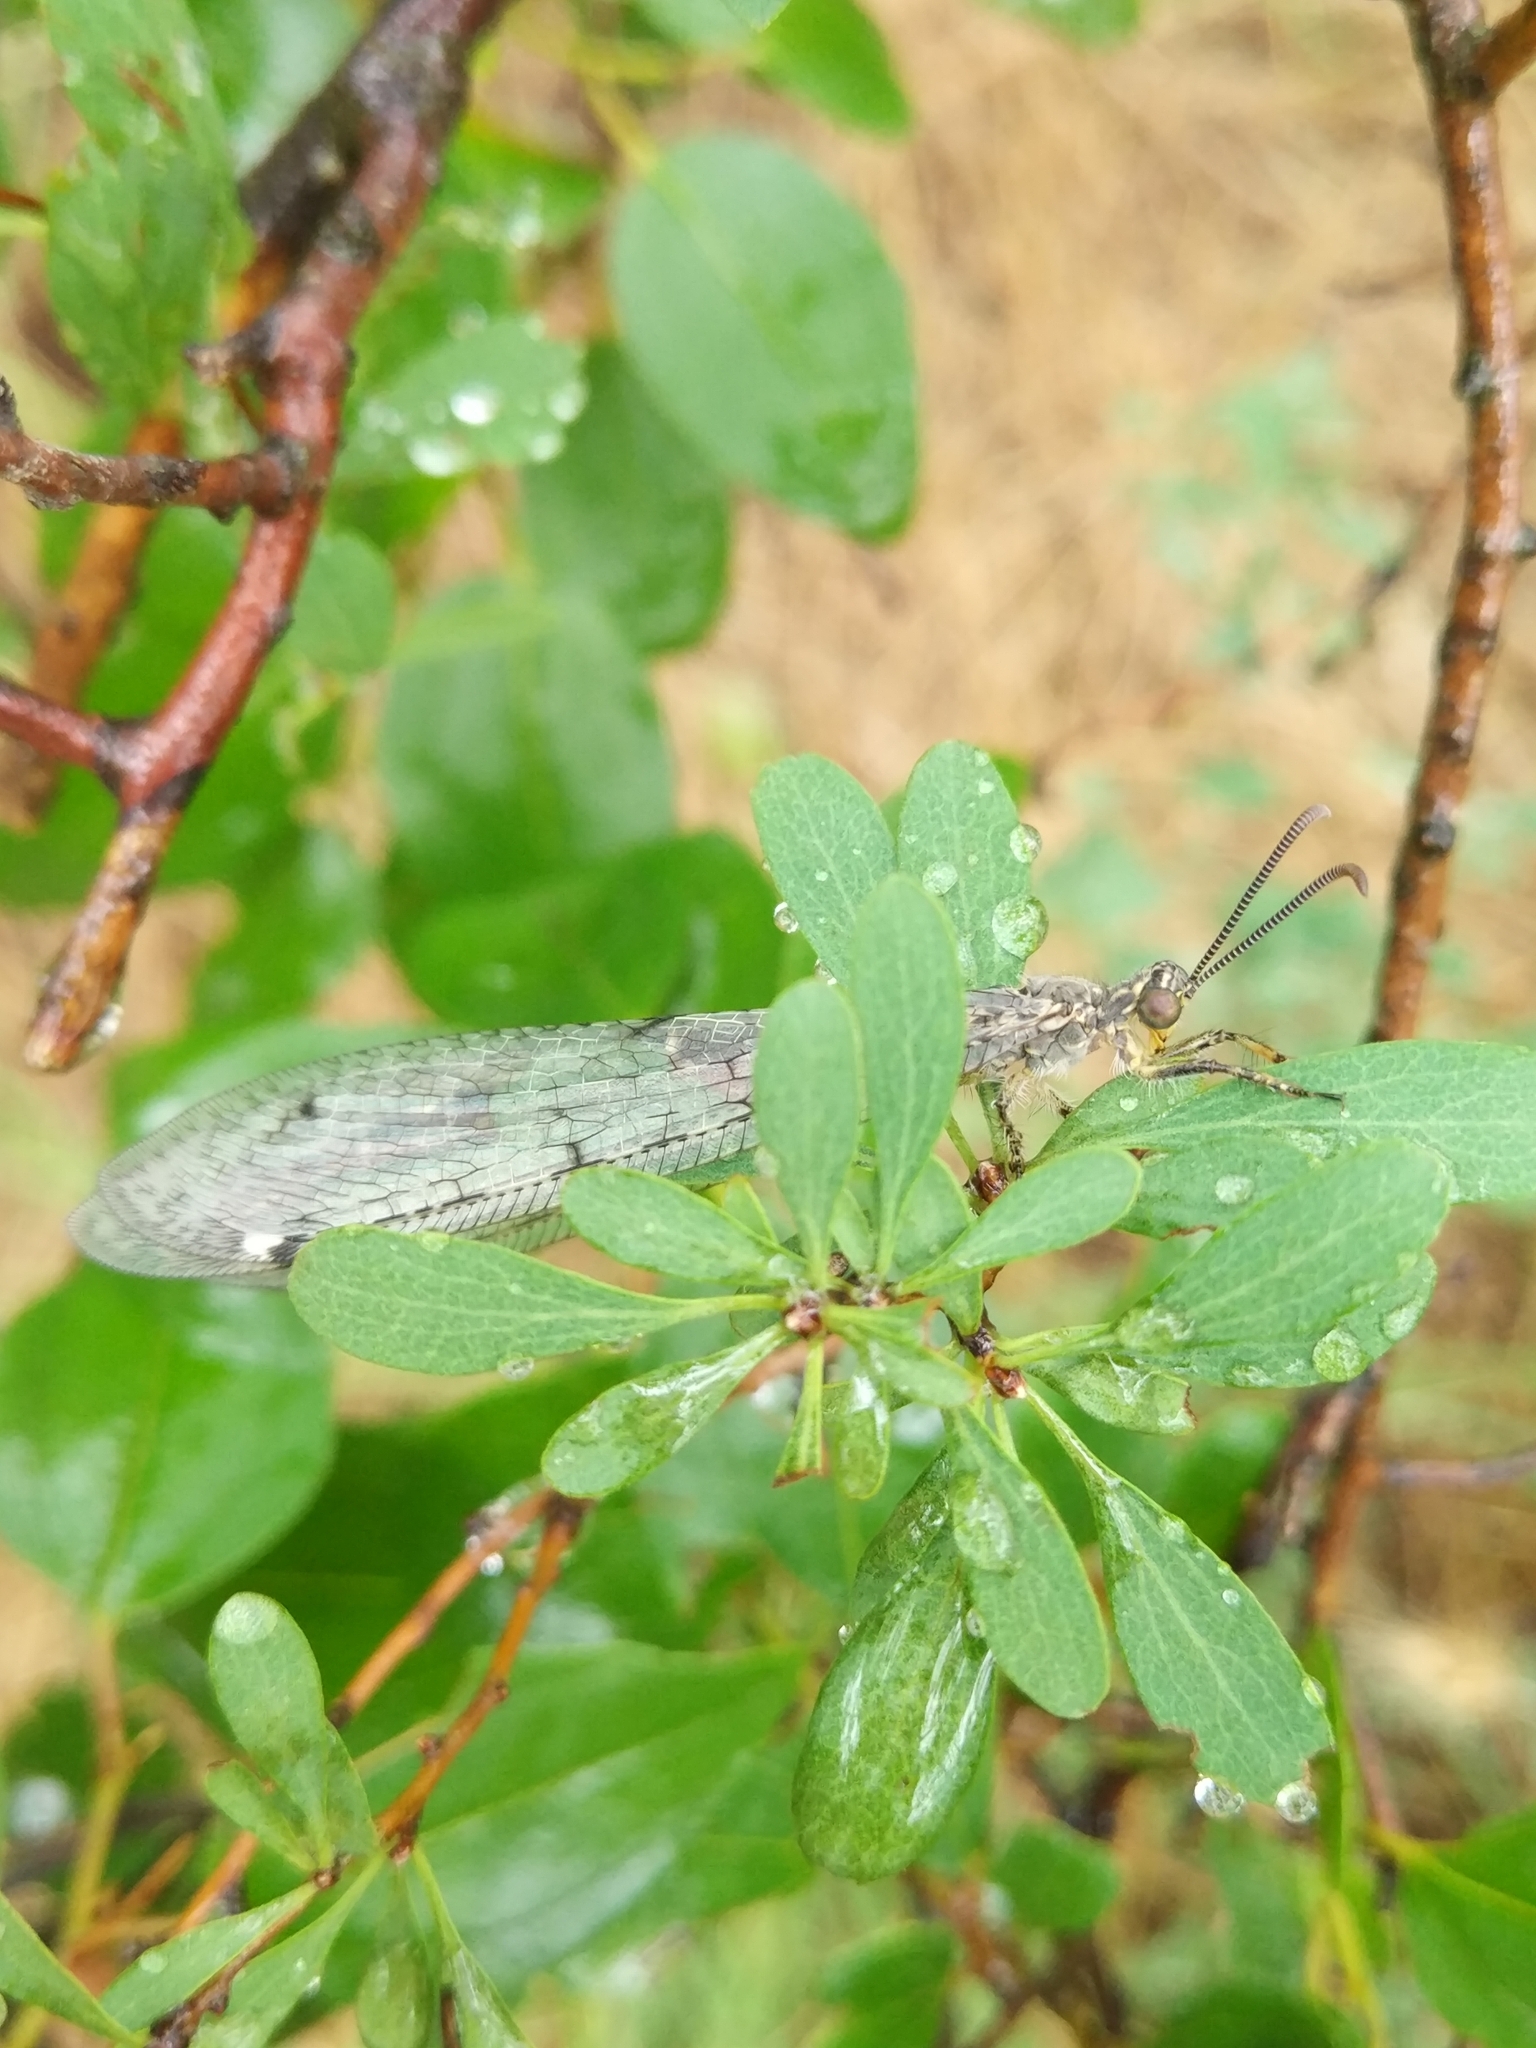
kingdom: Animalia
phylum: Arthropoda
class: Insecta
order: Neuroptera
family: Myrmeleontidae
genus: Distoleon
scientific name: Distoleon tetragrammicus
